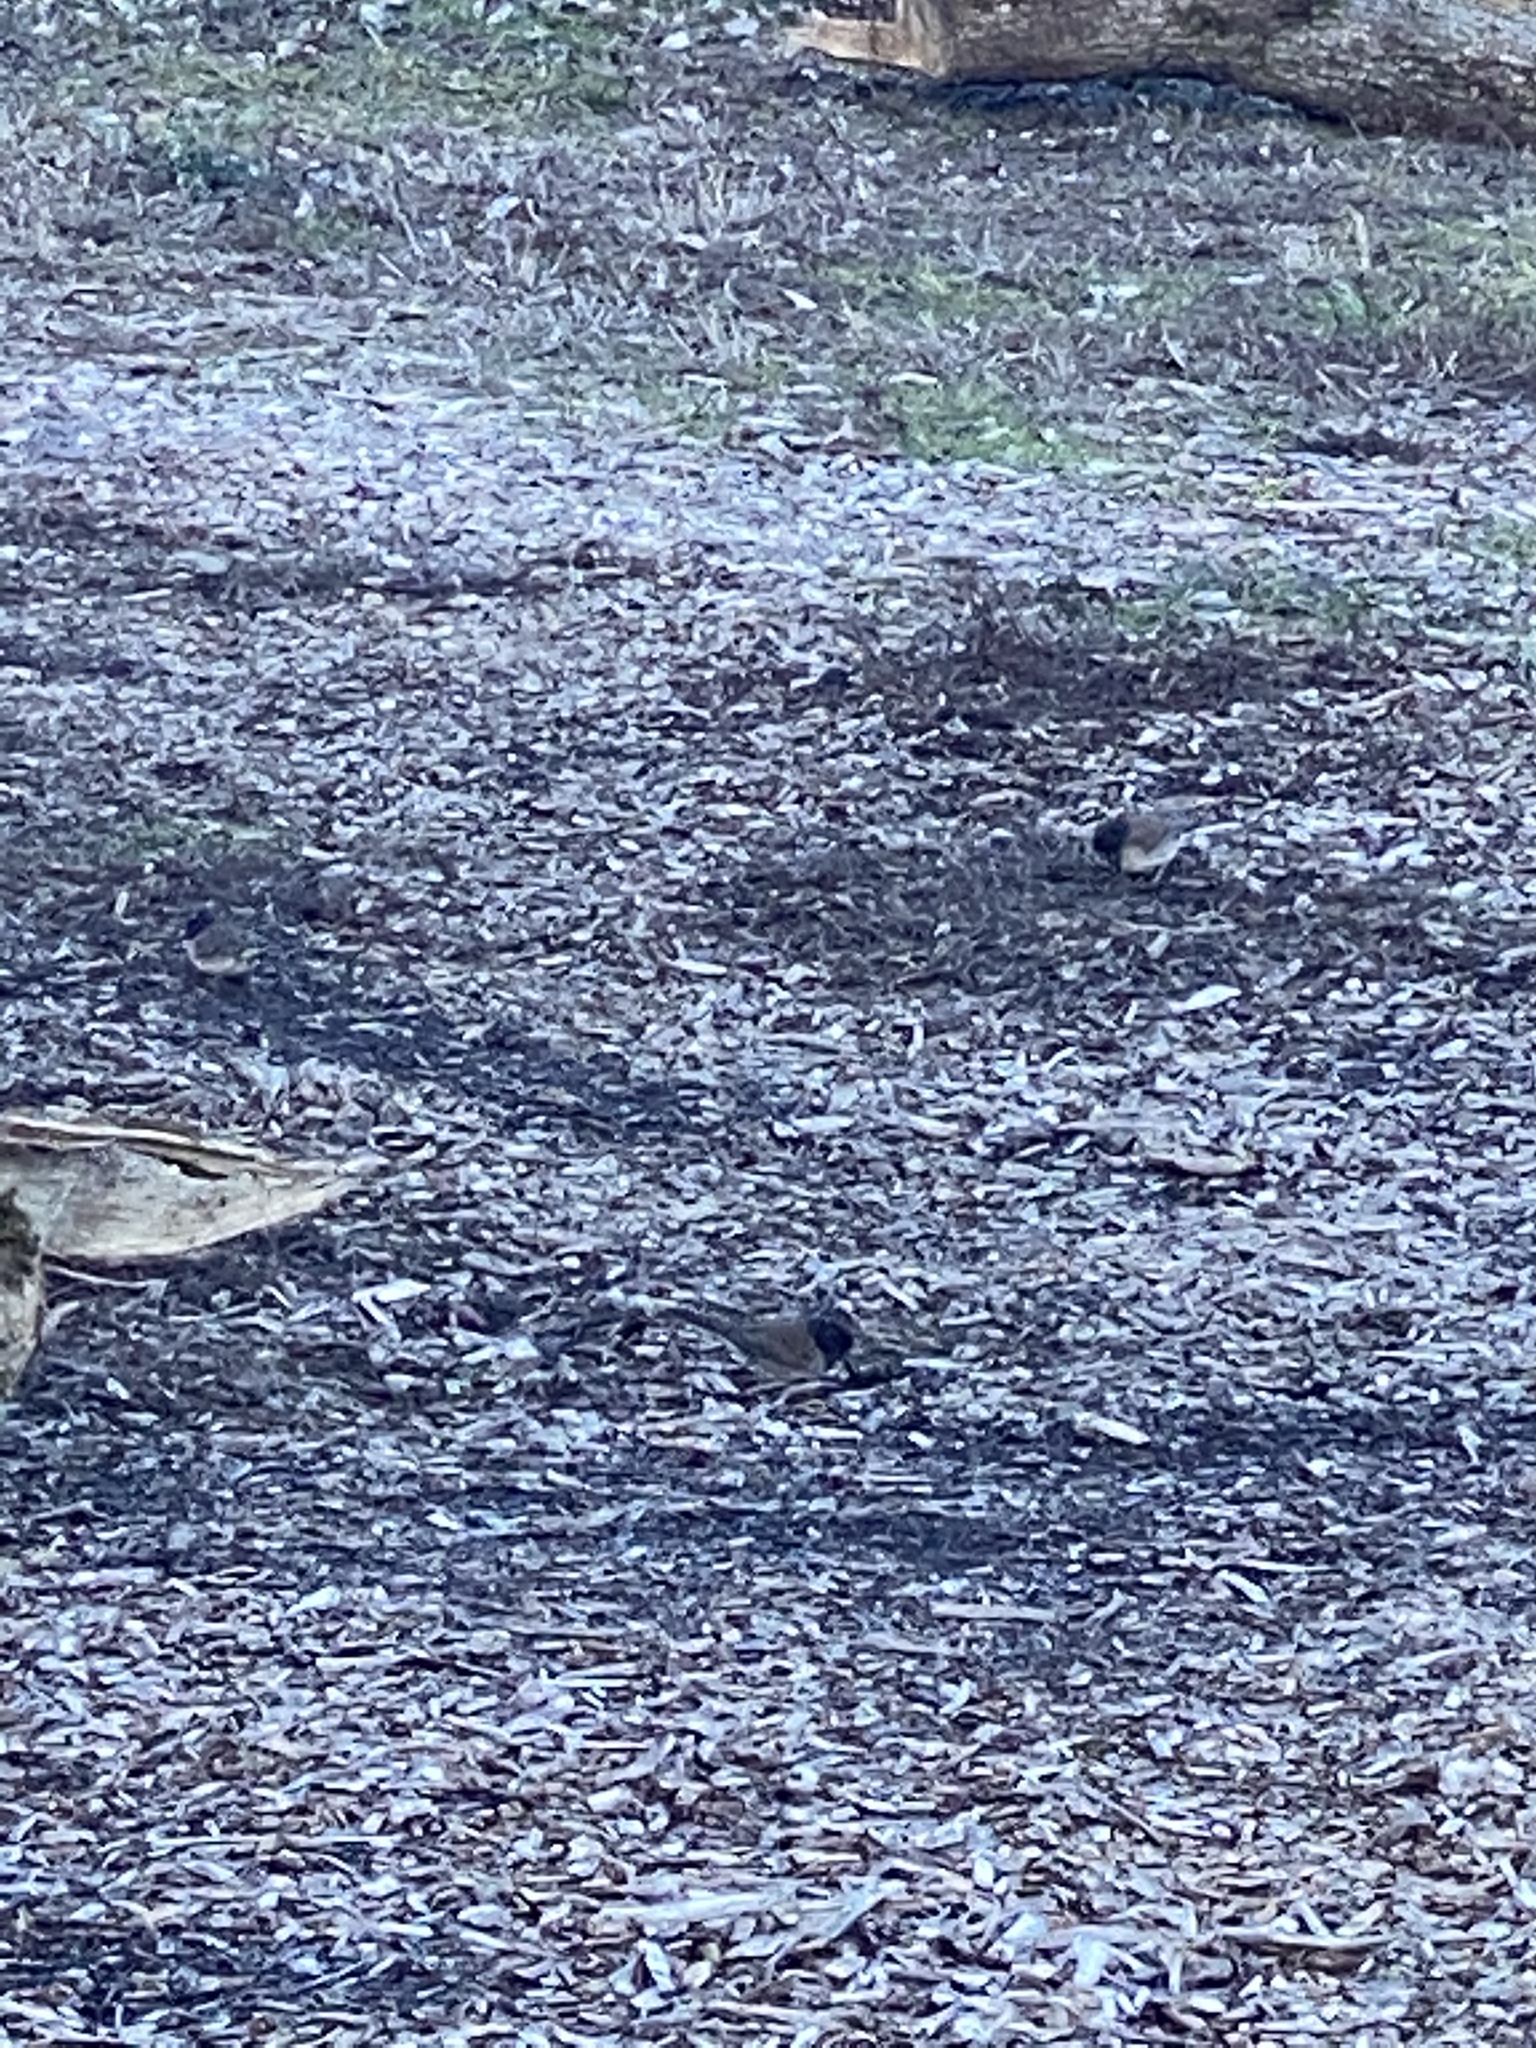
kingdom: Animalia
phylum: Chordata
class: Aves
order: Passeriformes
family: Passerellidae
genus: Junco
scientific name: Junco hyemalis
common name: Dark-eyed junco
